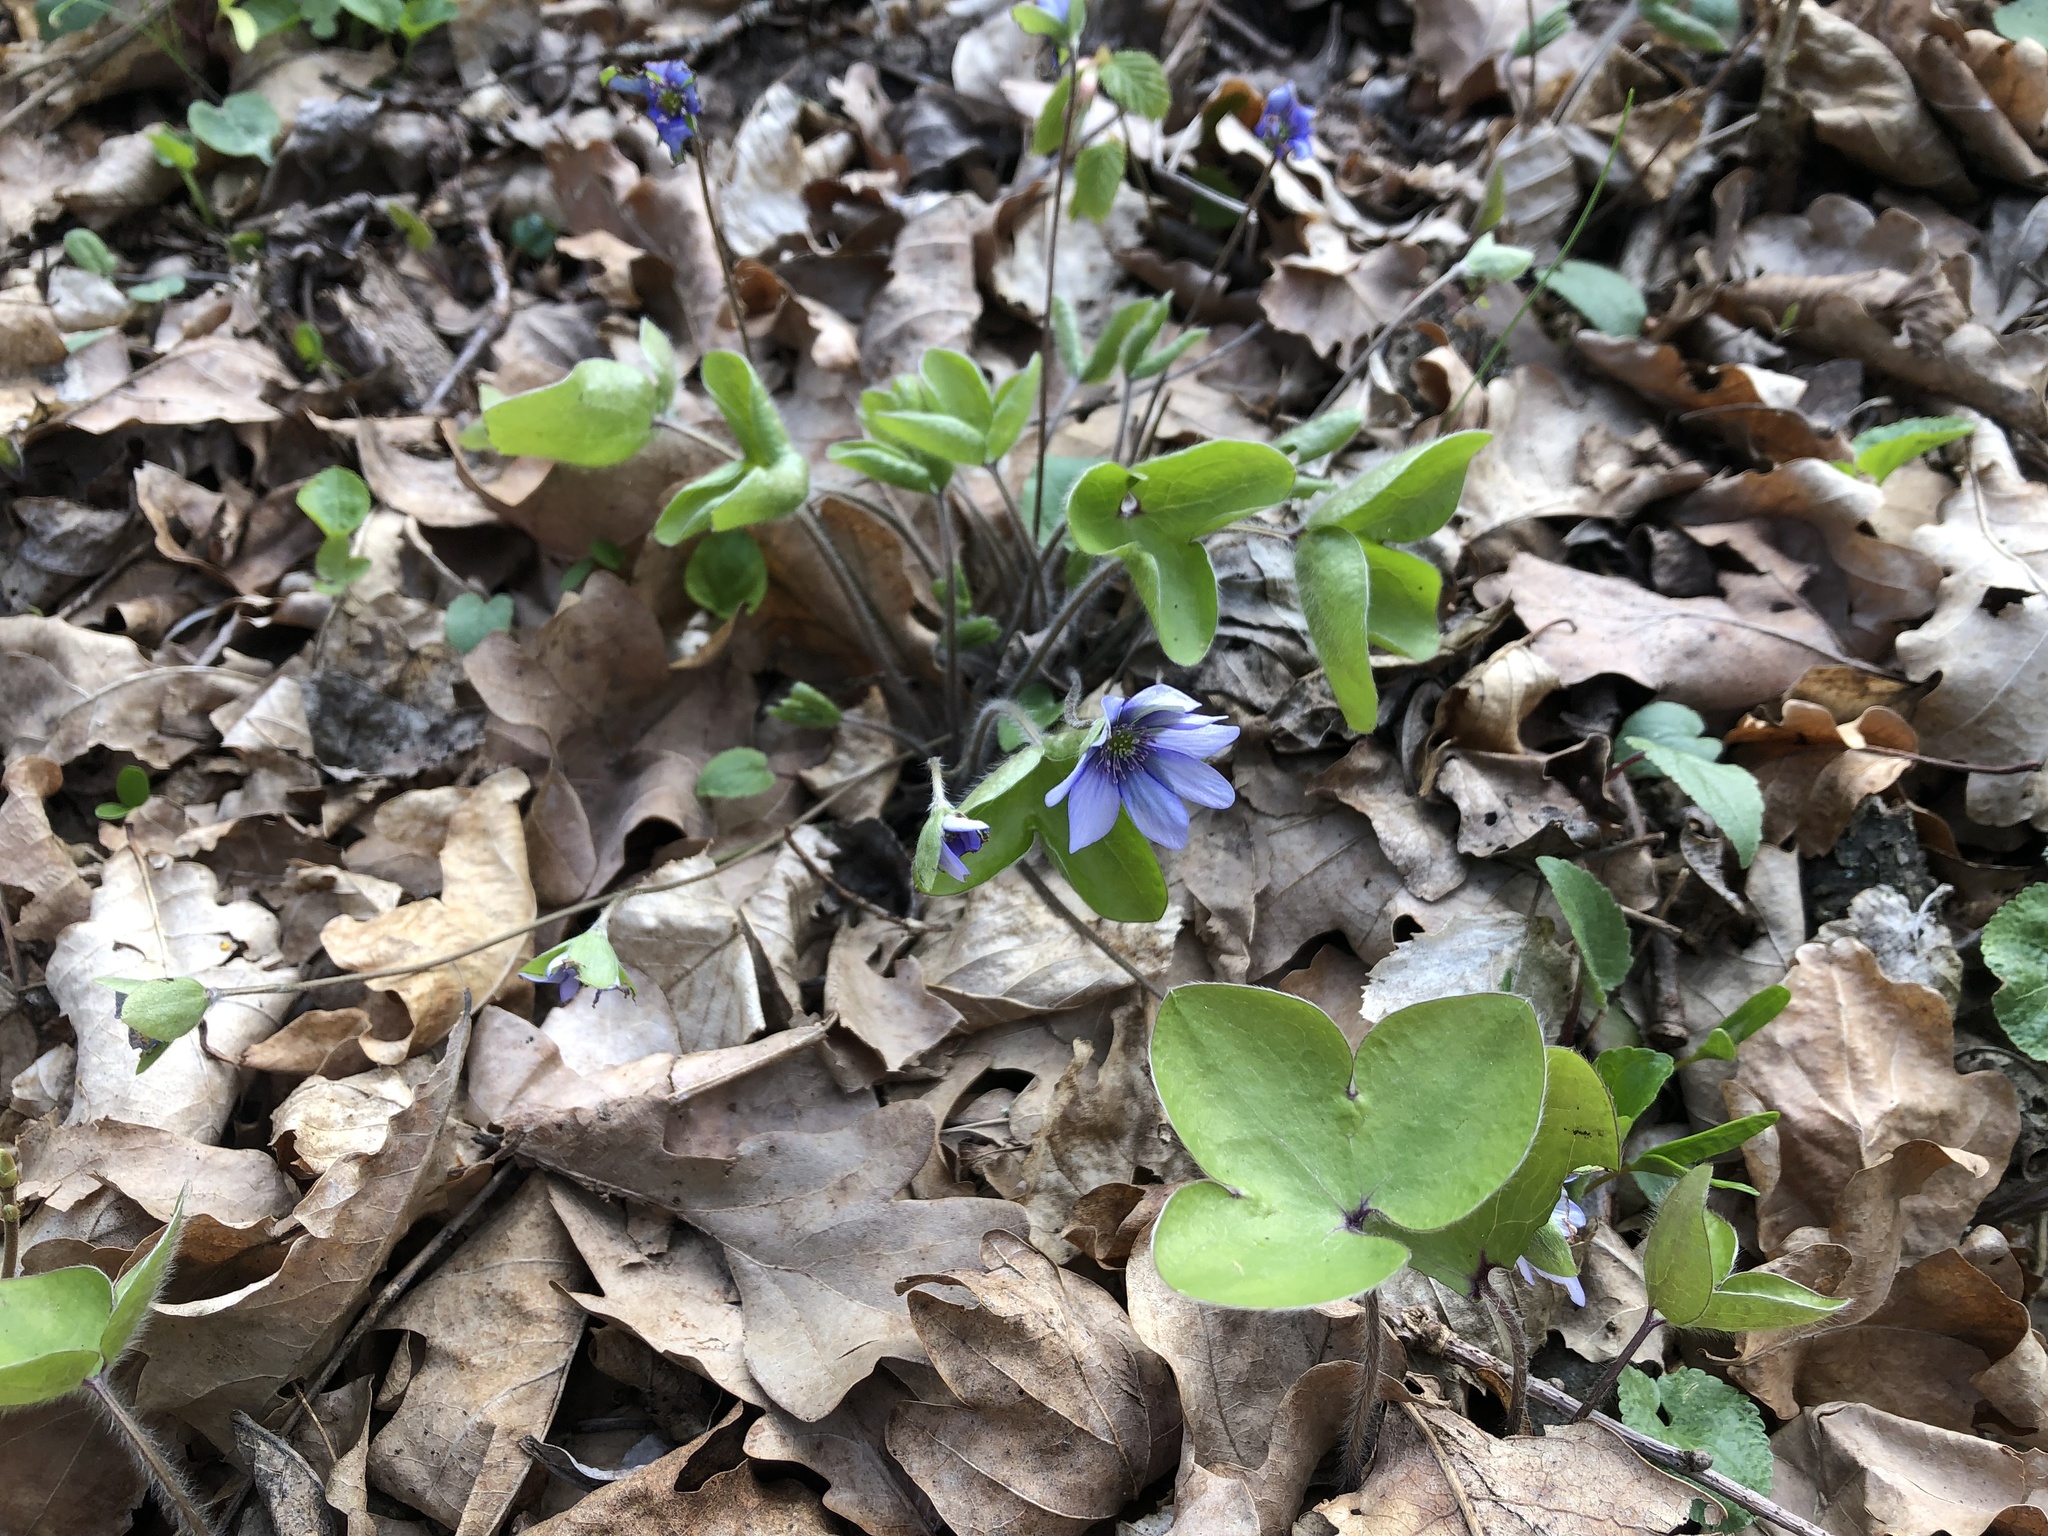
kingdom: Plantae
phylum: Tracheophyta
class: Magnoliopsida
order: Ranunculales
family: Ranunculaceae
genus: Hepatica
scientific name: Hepatica nobilis
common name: Liverleaf
